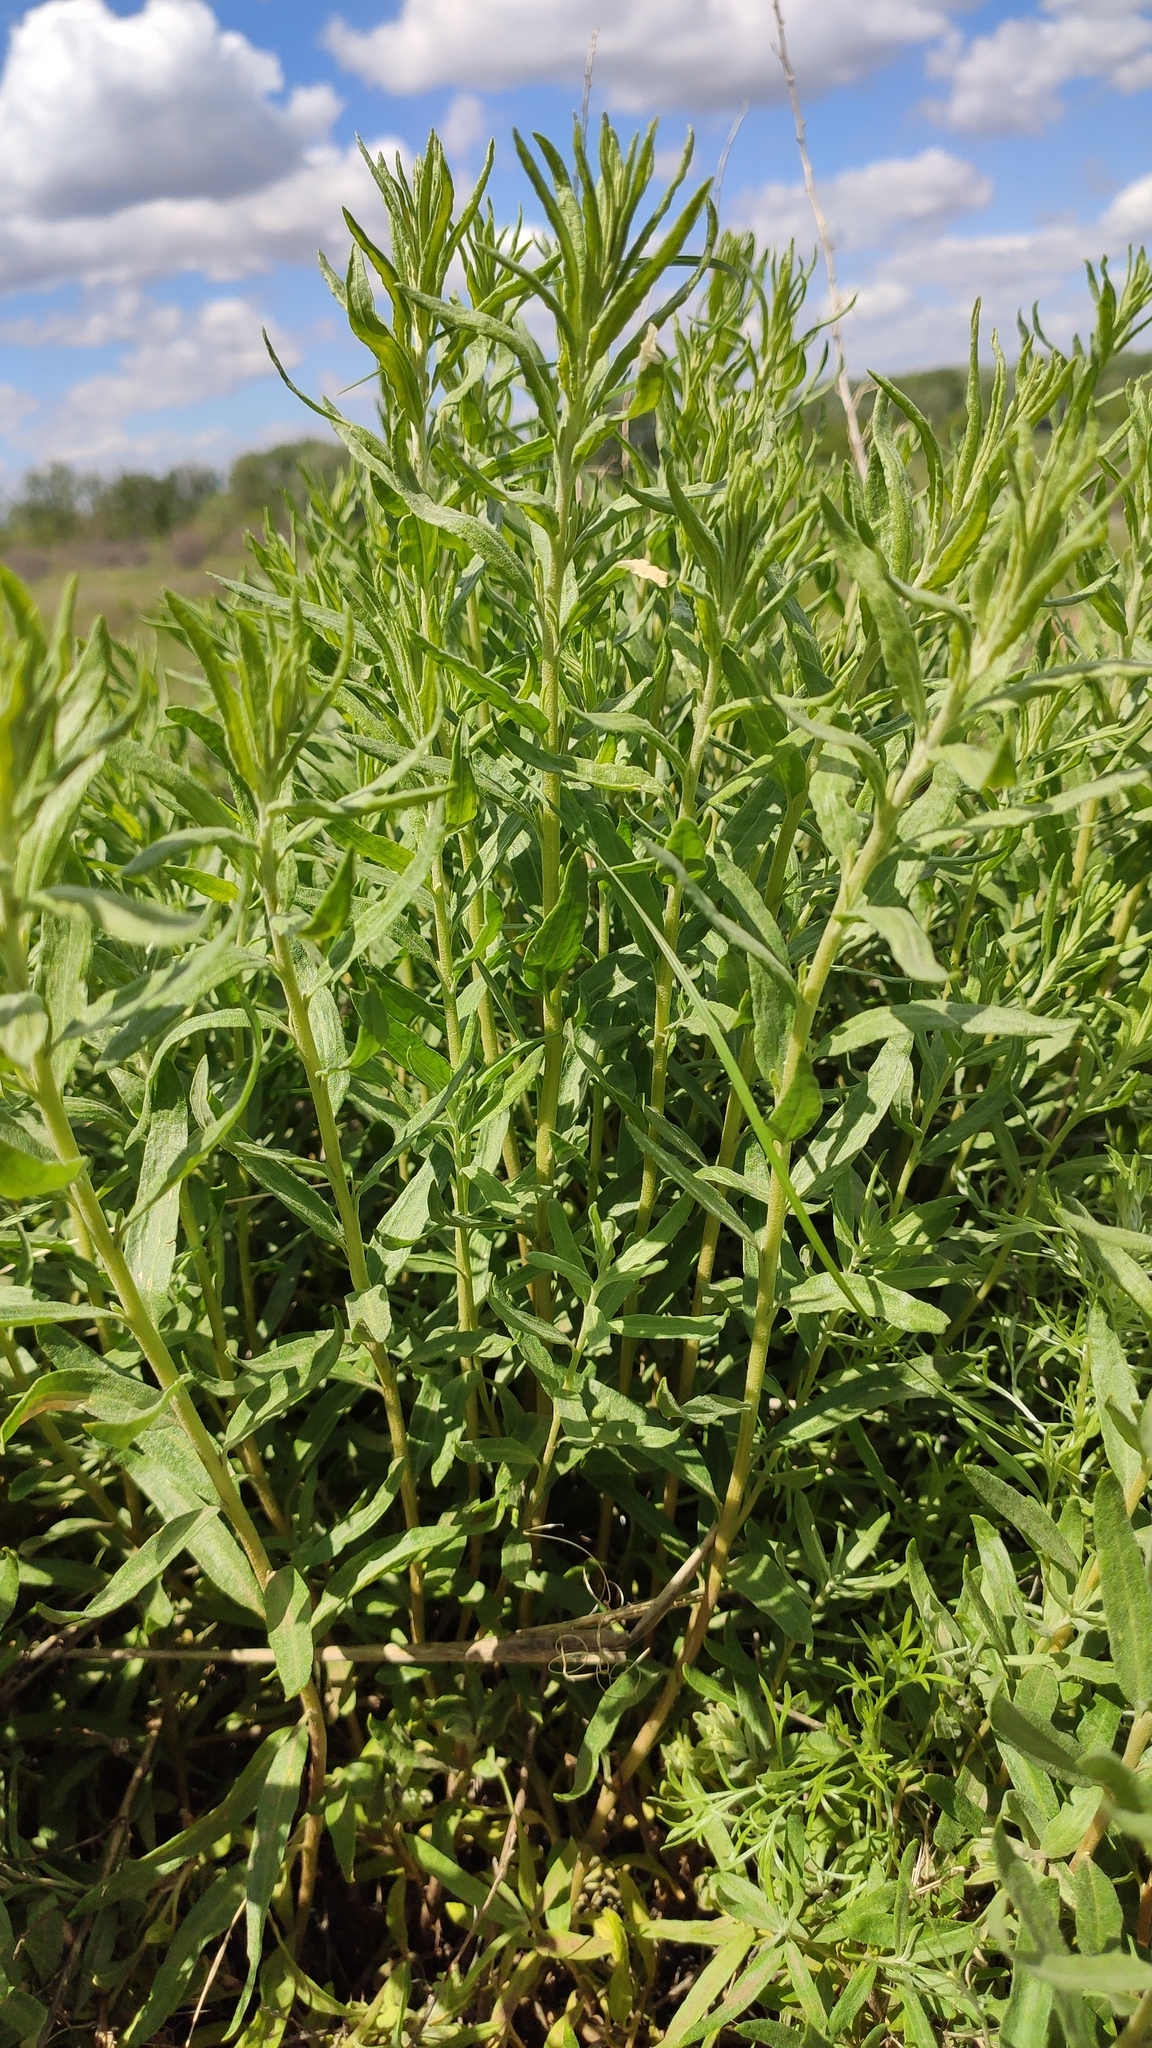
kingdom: Plantae
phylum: Tracheophyta
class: Magnoliopsida
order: Boraginales
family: Boraginaceae
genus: Lithospermum
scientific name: Lithospermum officinale
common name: Common gromwell
